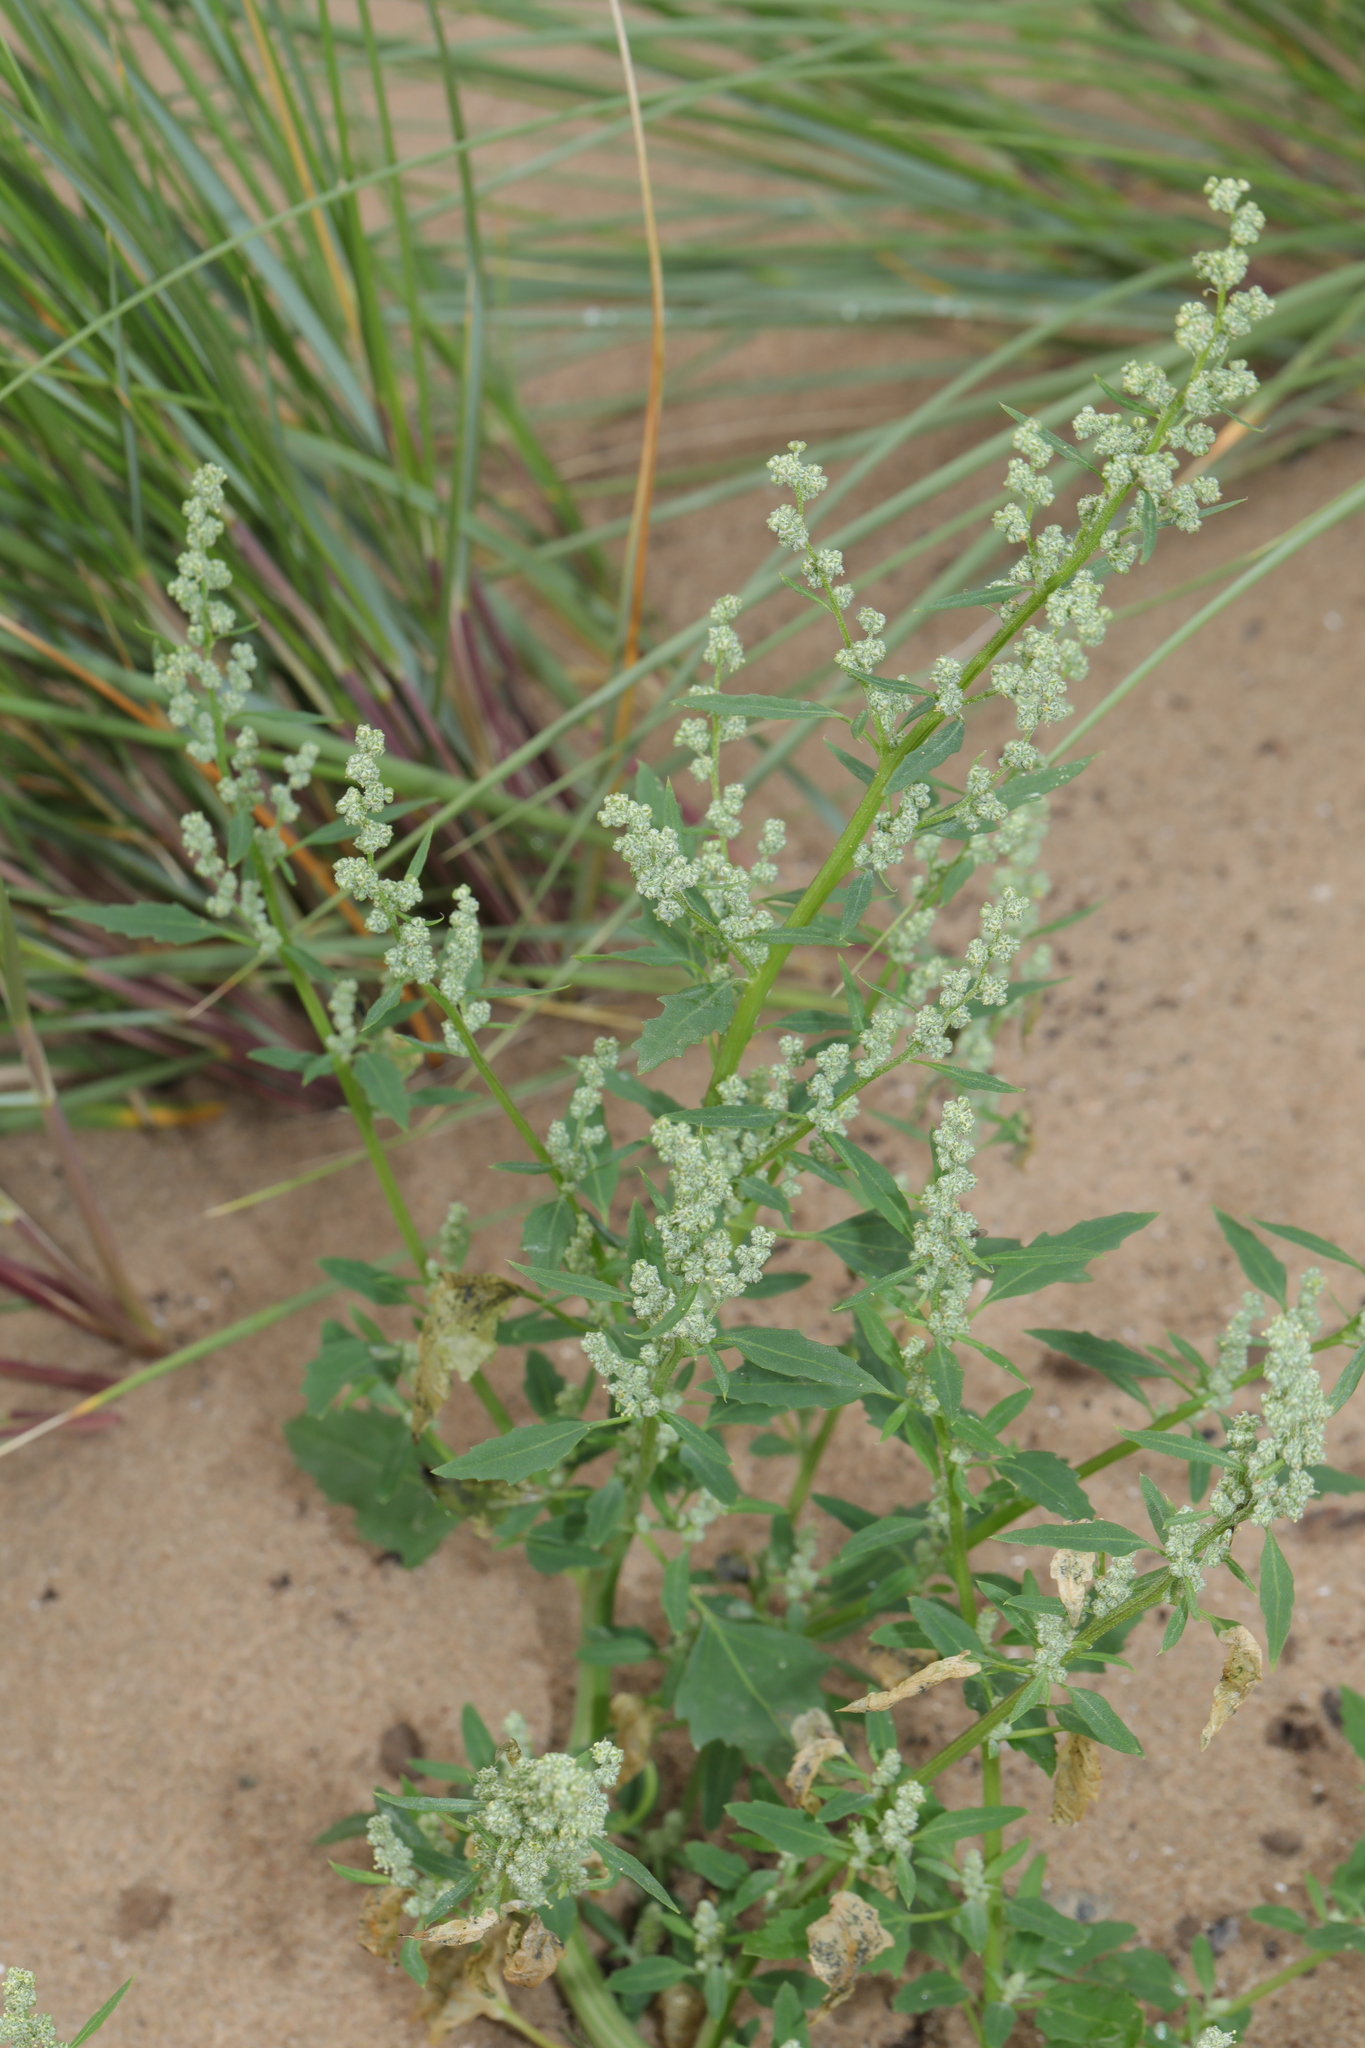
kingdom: Plantae
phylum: Tracheophyta
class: Magnoliopsida
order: Caryophyllales
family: Amaranthaceae
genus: Chenopodium
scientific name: Chenopodium album
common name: Fat-hen
